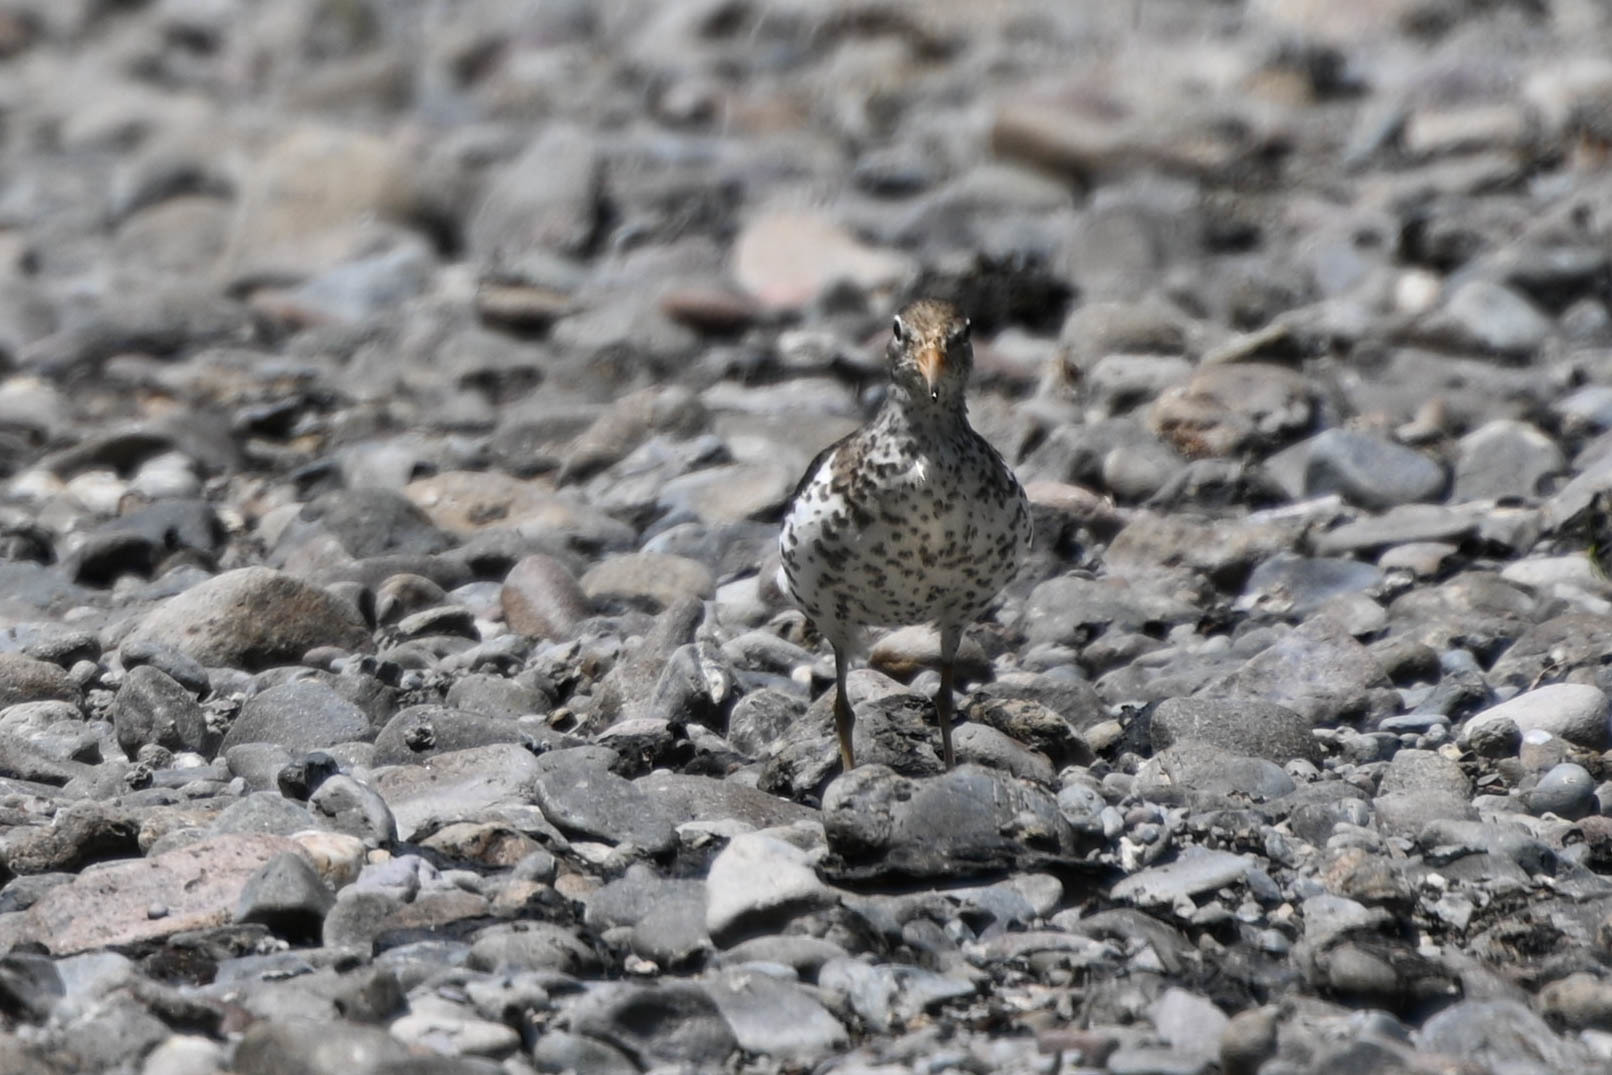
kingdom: Animalia
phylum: Chordata
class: Aves
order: Charadriiformes
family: Scolopacidae
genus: Actitis
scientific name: Actitis macularius
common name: Spotted sandpiper
